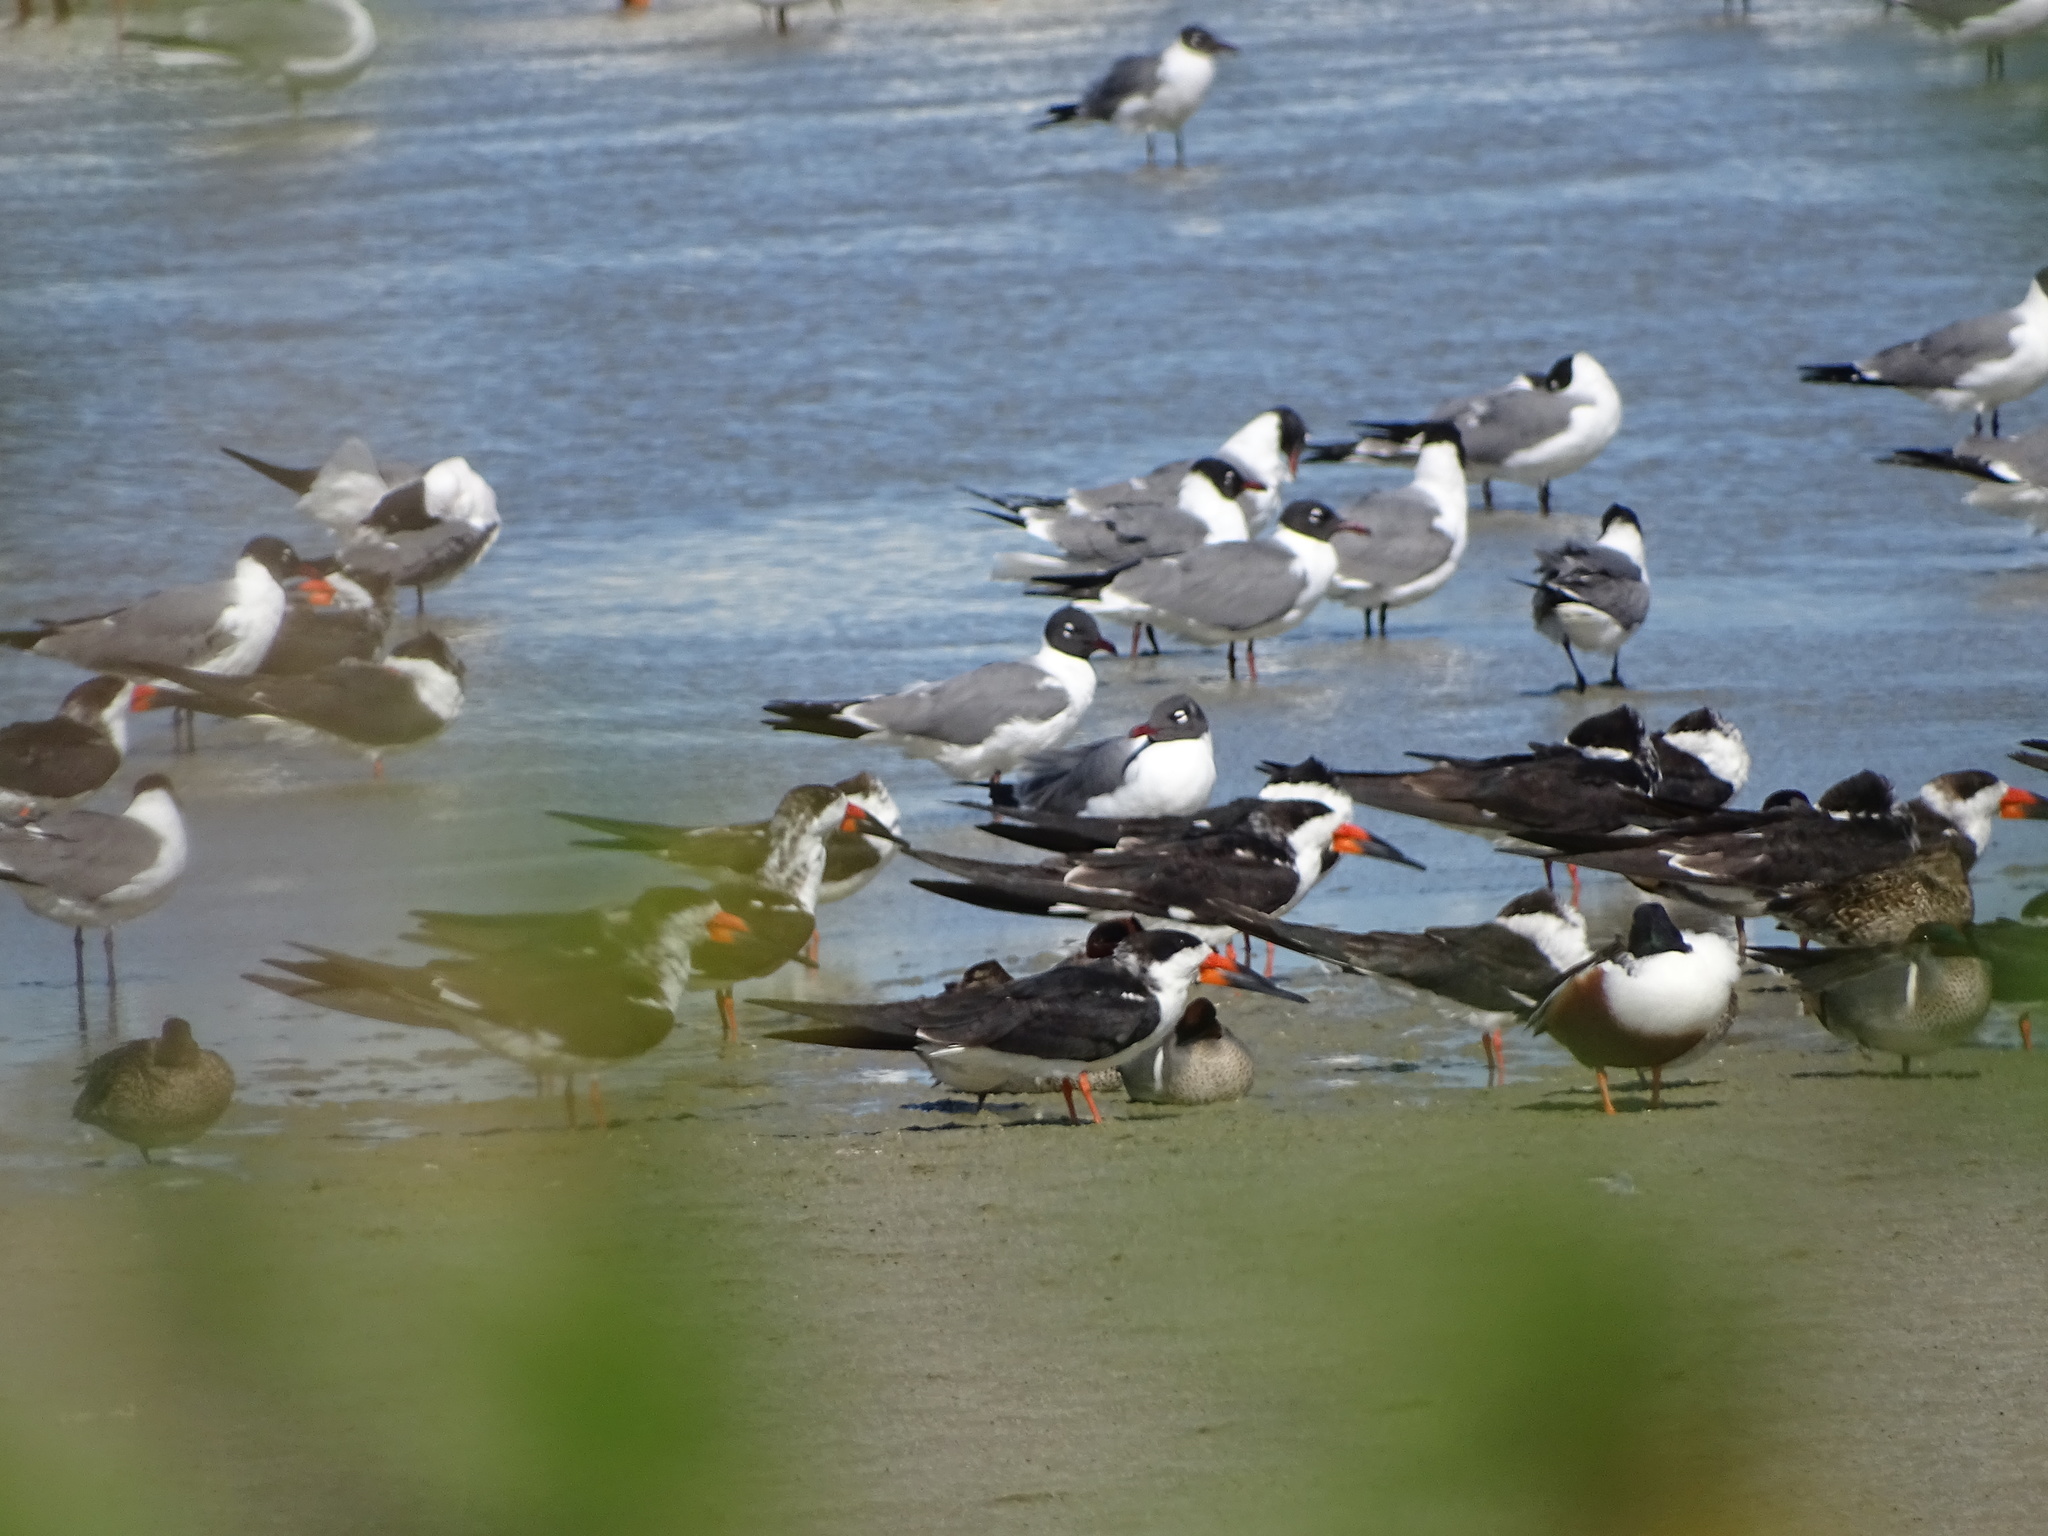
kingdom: Animalia
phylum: Chordata
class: Aves
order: Charadriiformes
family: Laridae
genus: Rynchops
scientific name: Rynchops niger
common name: Black skimmer
